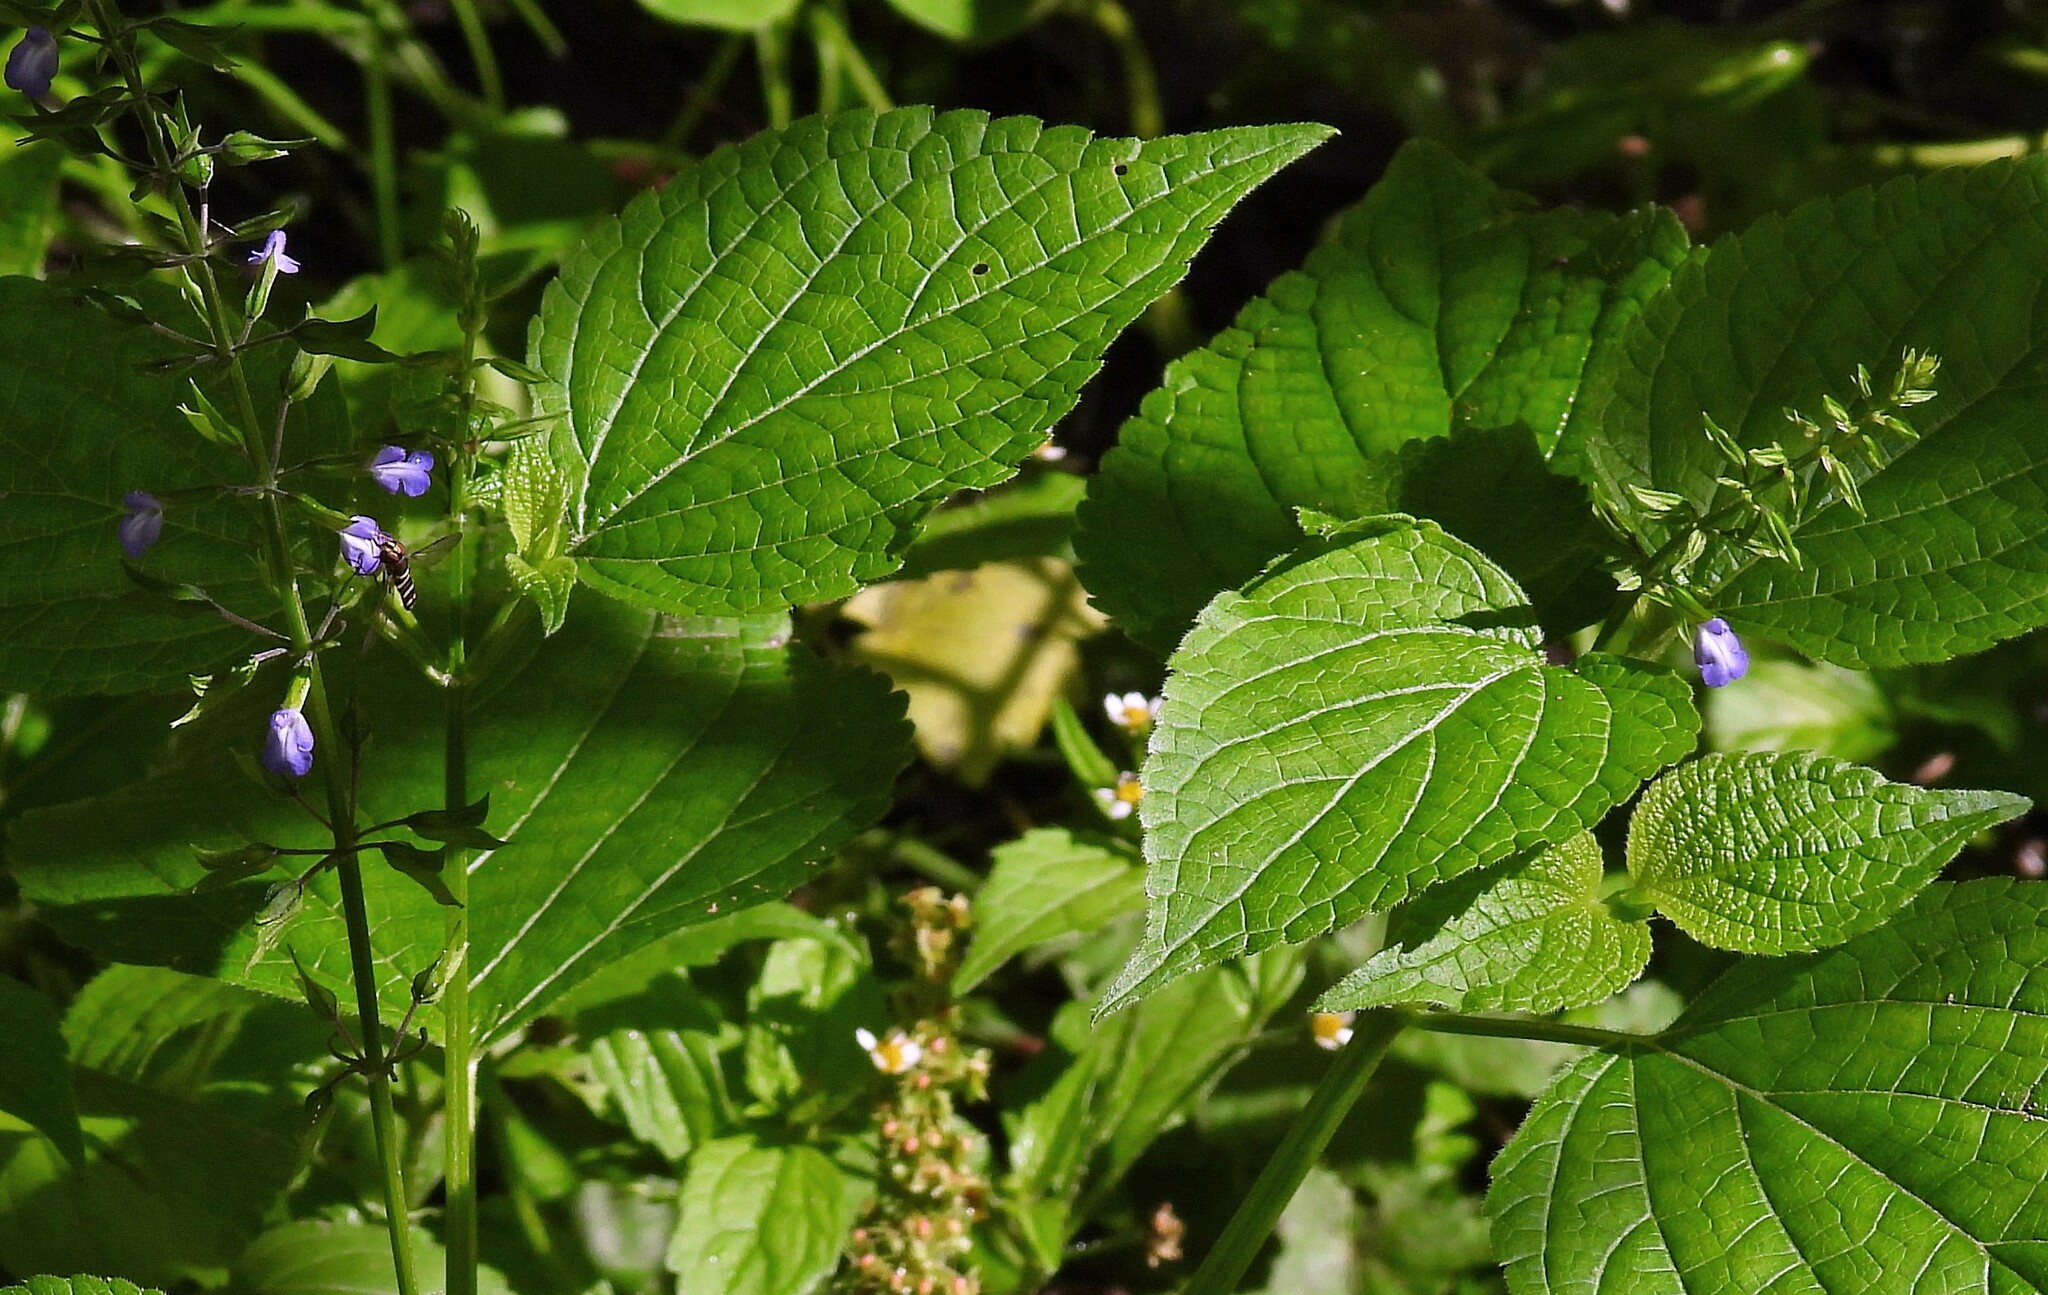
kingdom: Plantae
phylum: Tracheophyta
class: Magnoliopsida
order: Lamiales
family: Lamiaceae
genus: Salvia
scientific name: Salvia personata
